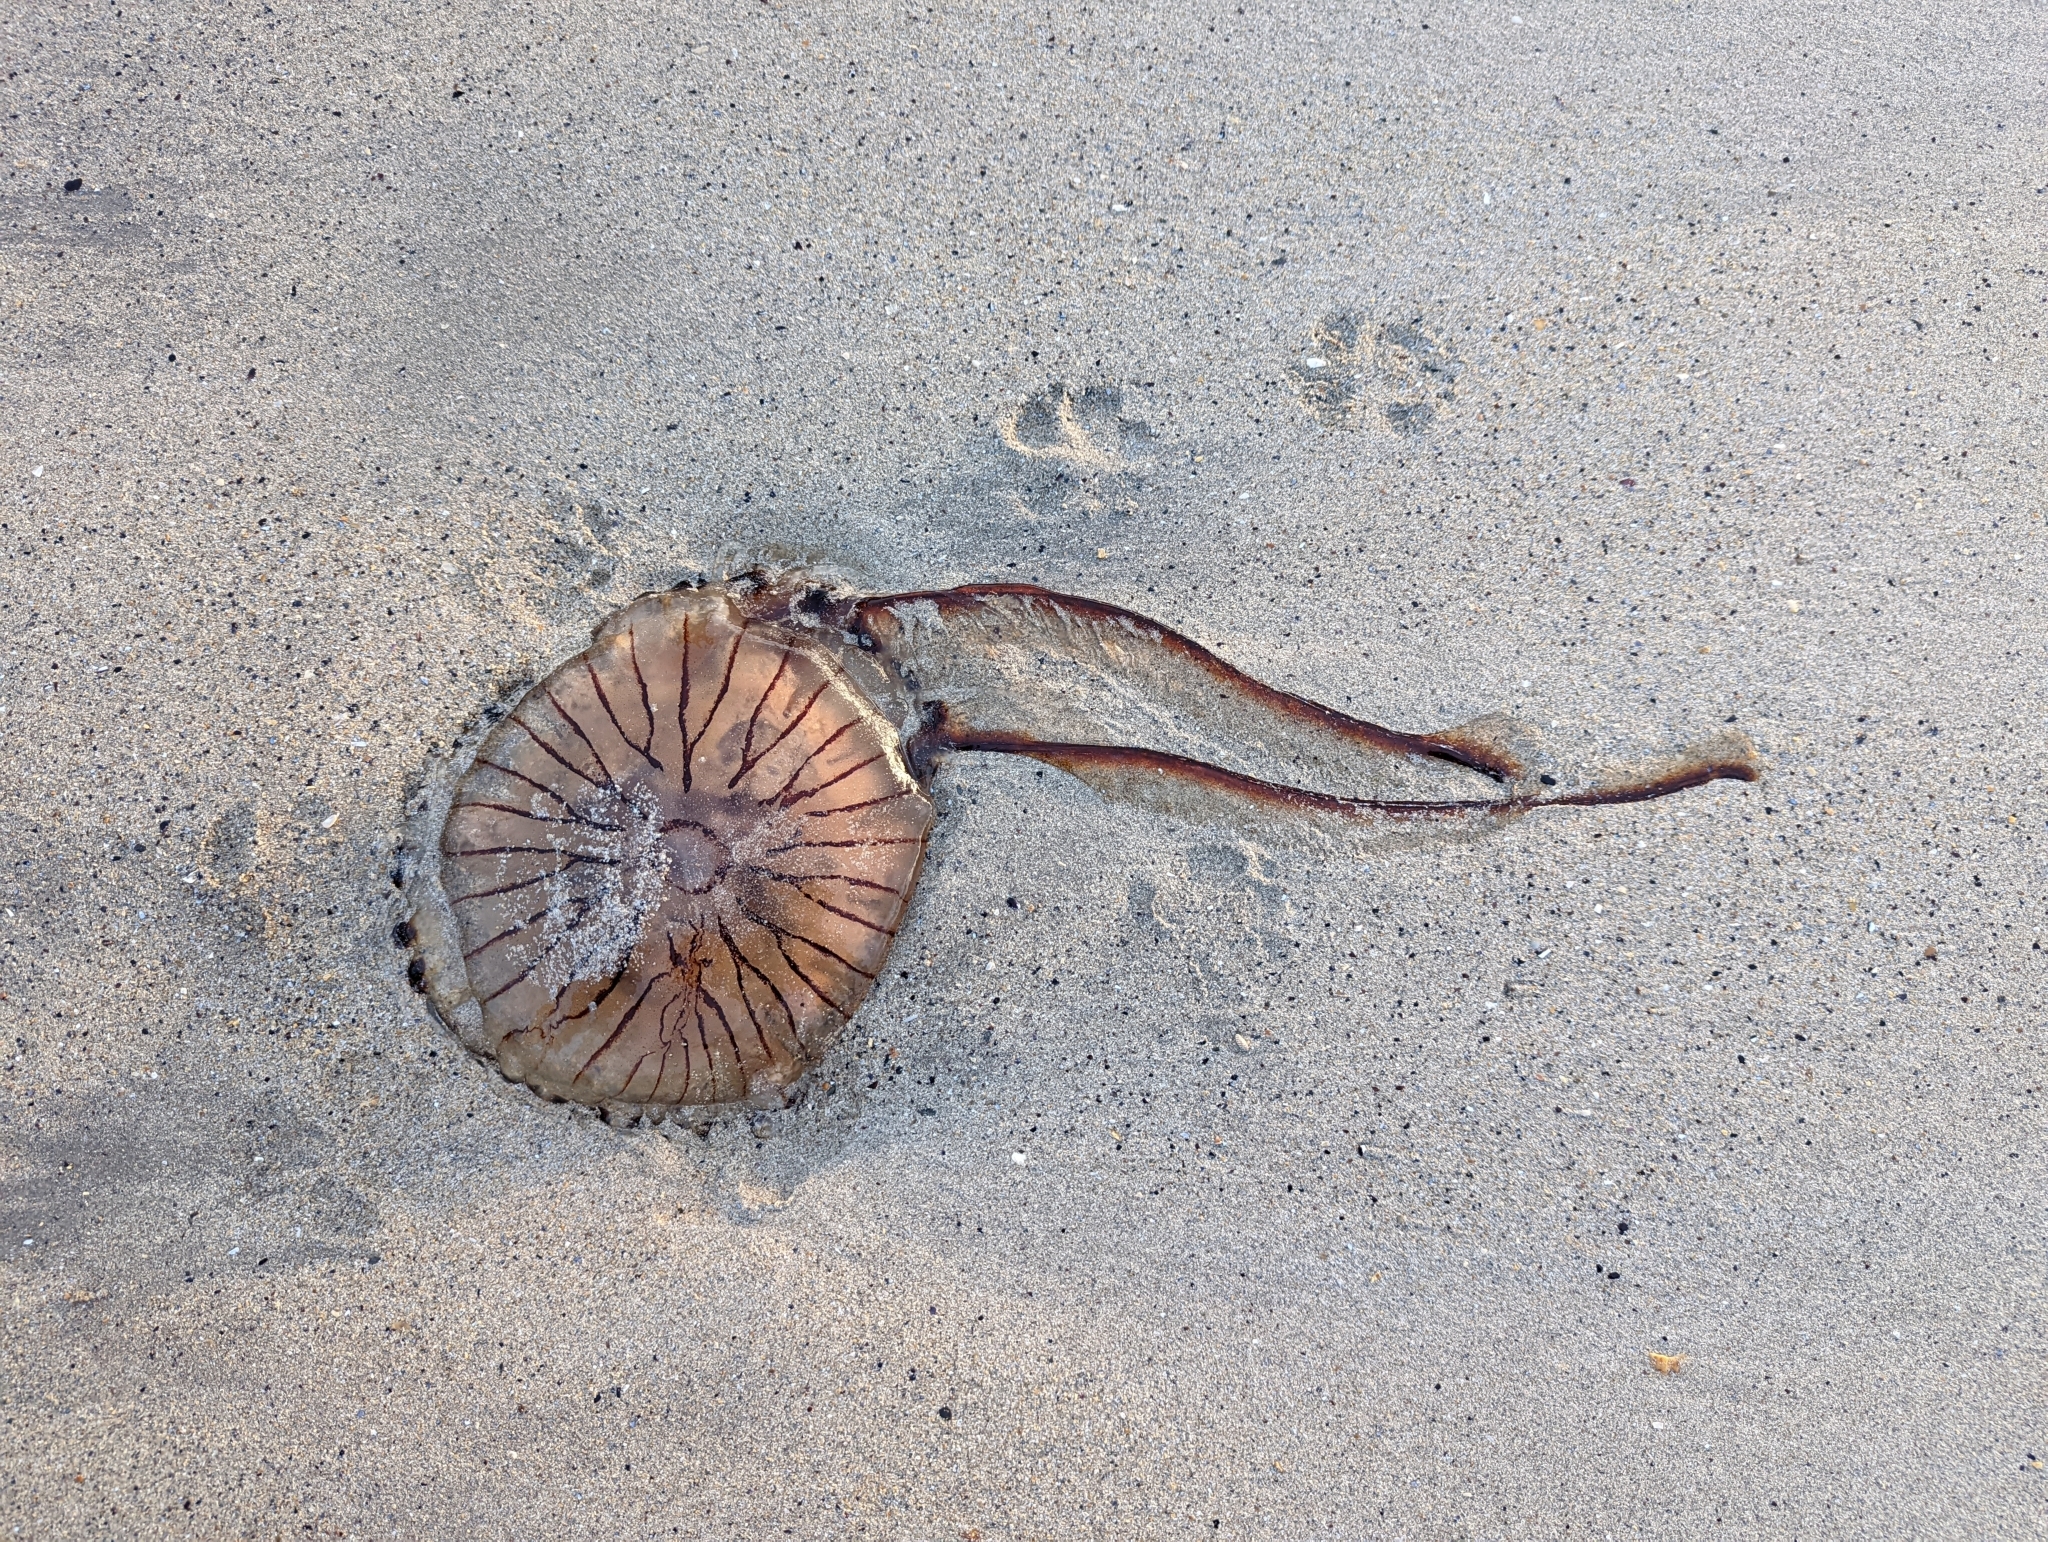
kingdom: Animalia
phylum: Cnidaria
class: Scyphozoa
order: Semaeostomeae
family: Pelagiidae
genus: Chrysaora
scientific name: Chrysaora hysoscella
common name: Compass jellyfish
